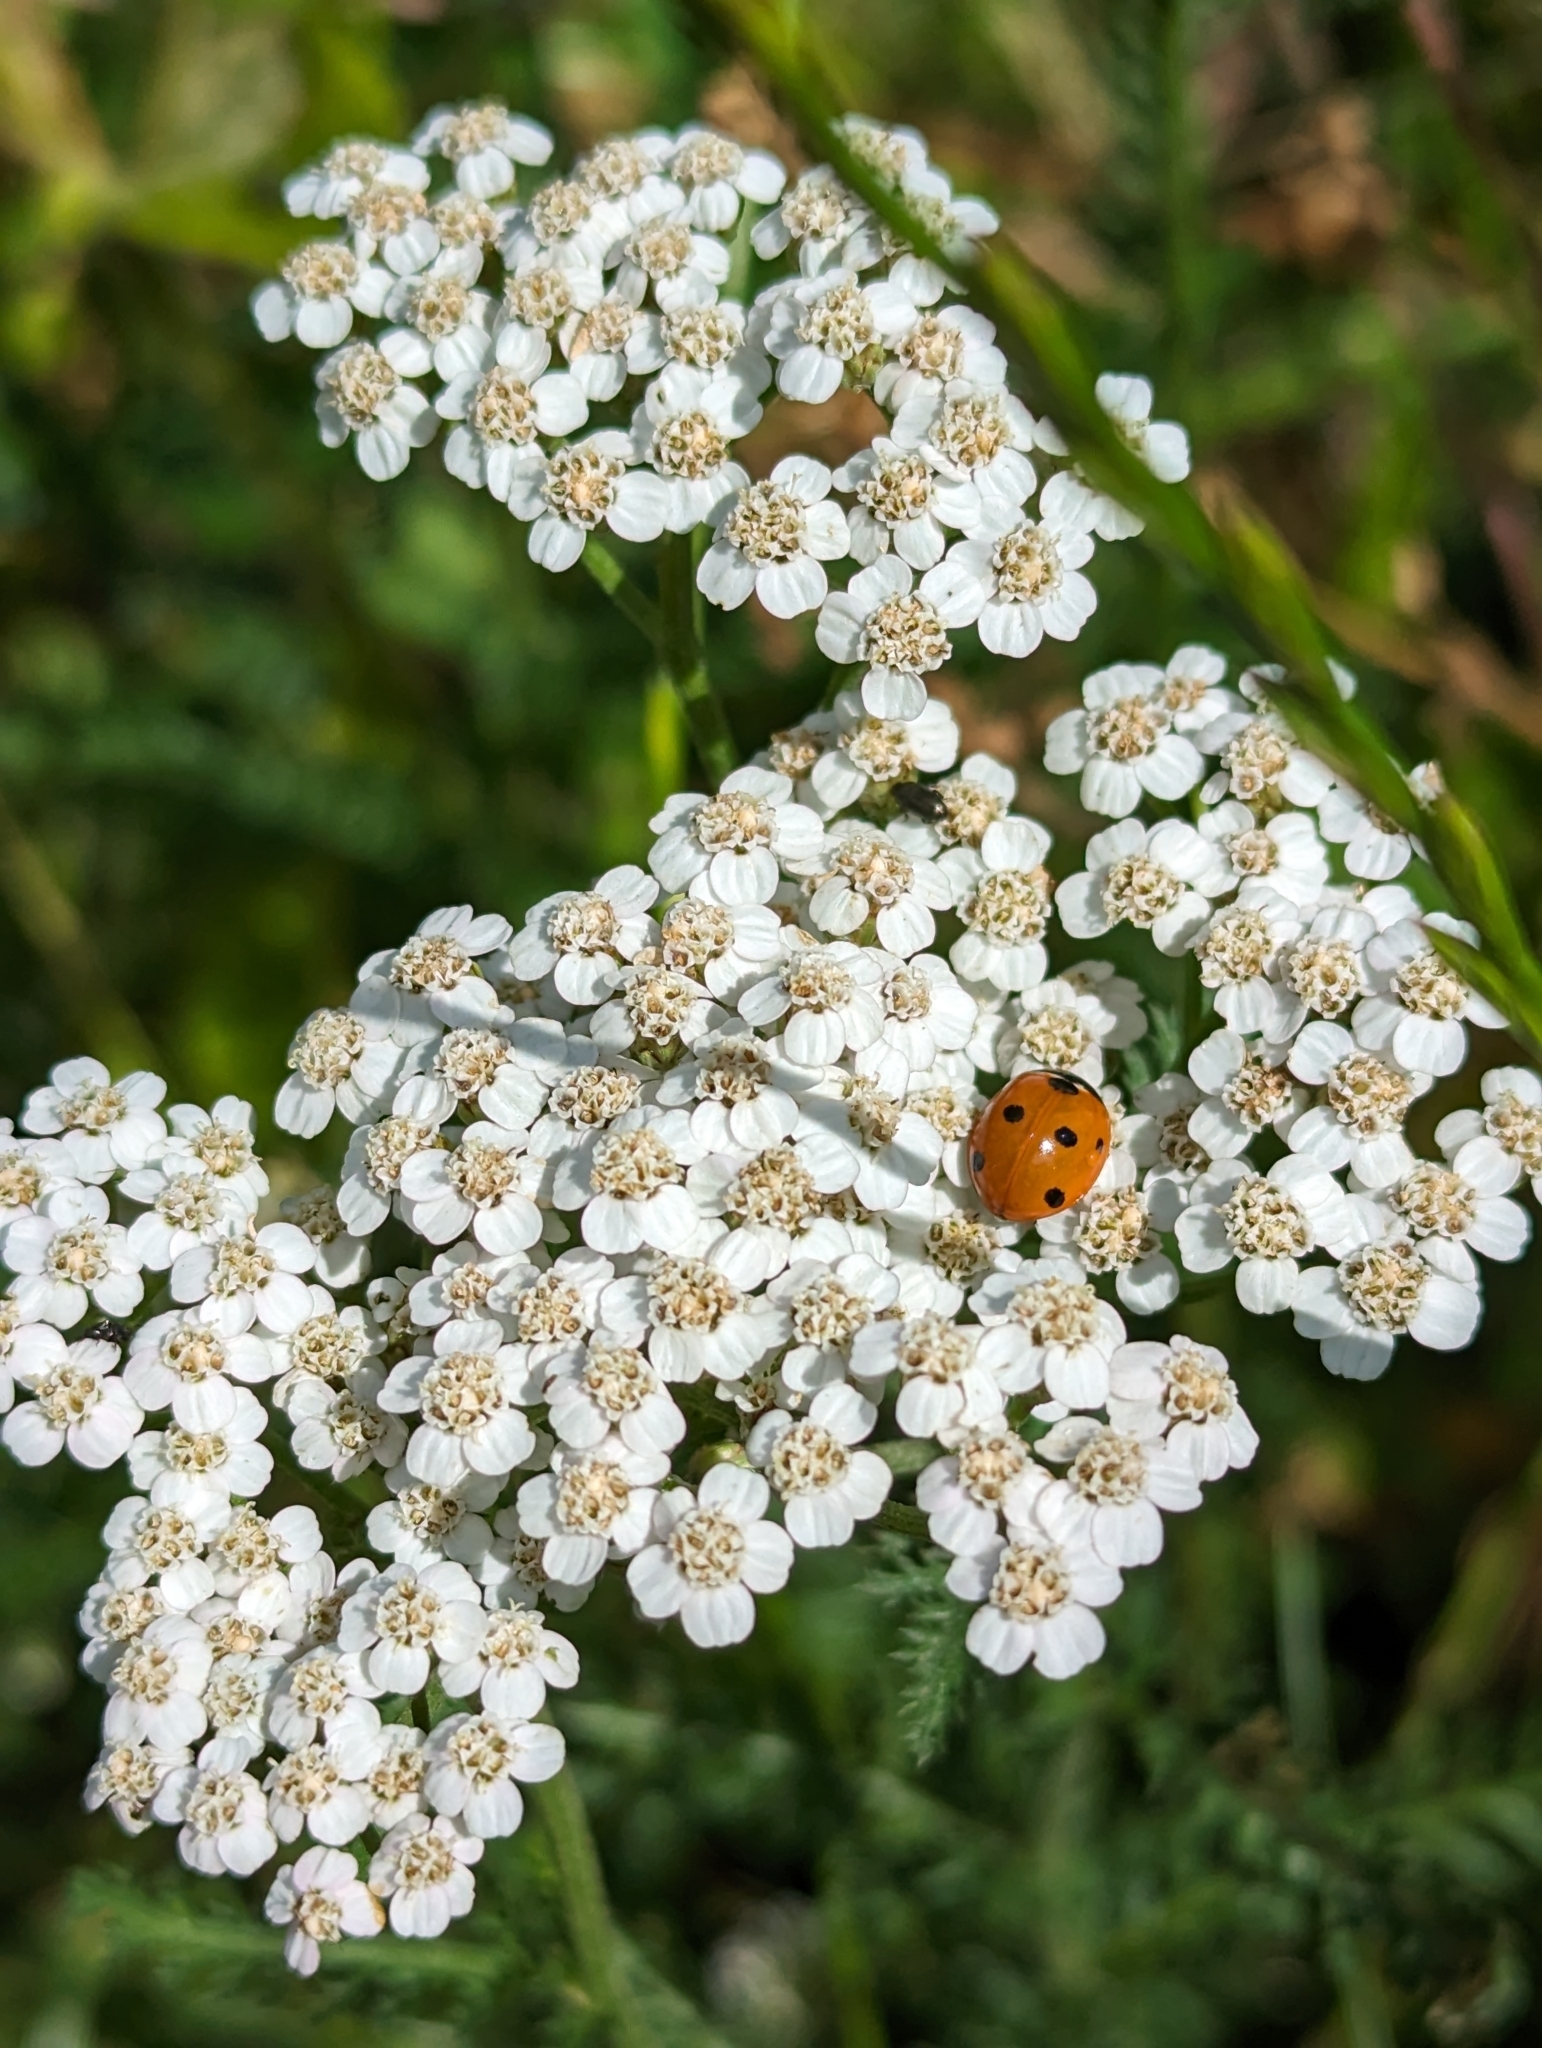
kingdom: Animalia
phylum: Arthropoda
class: Insecta
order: Coleoptera
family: Coccinellidae
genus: Coccinella
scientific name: Coccinella septempunctata
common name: Sevenspotted lady beetle
